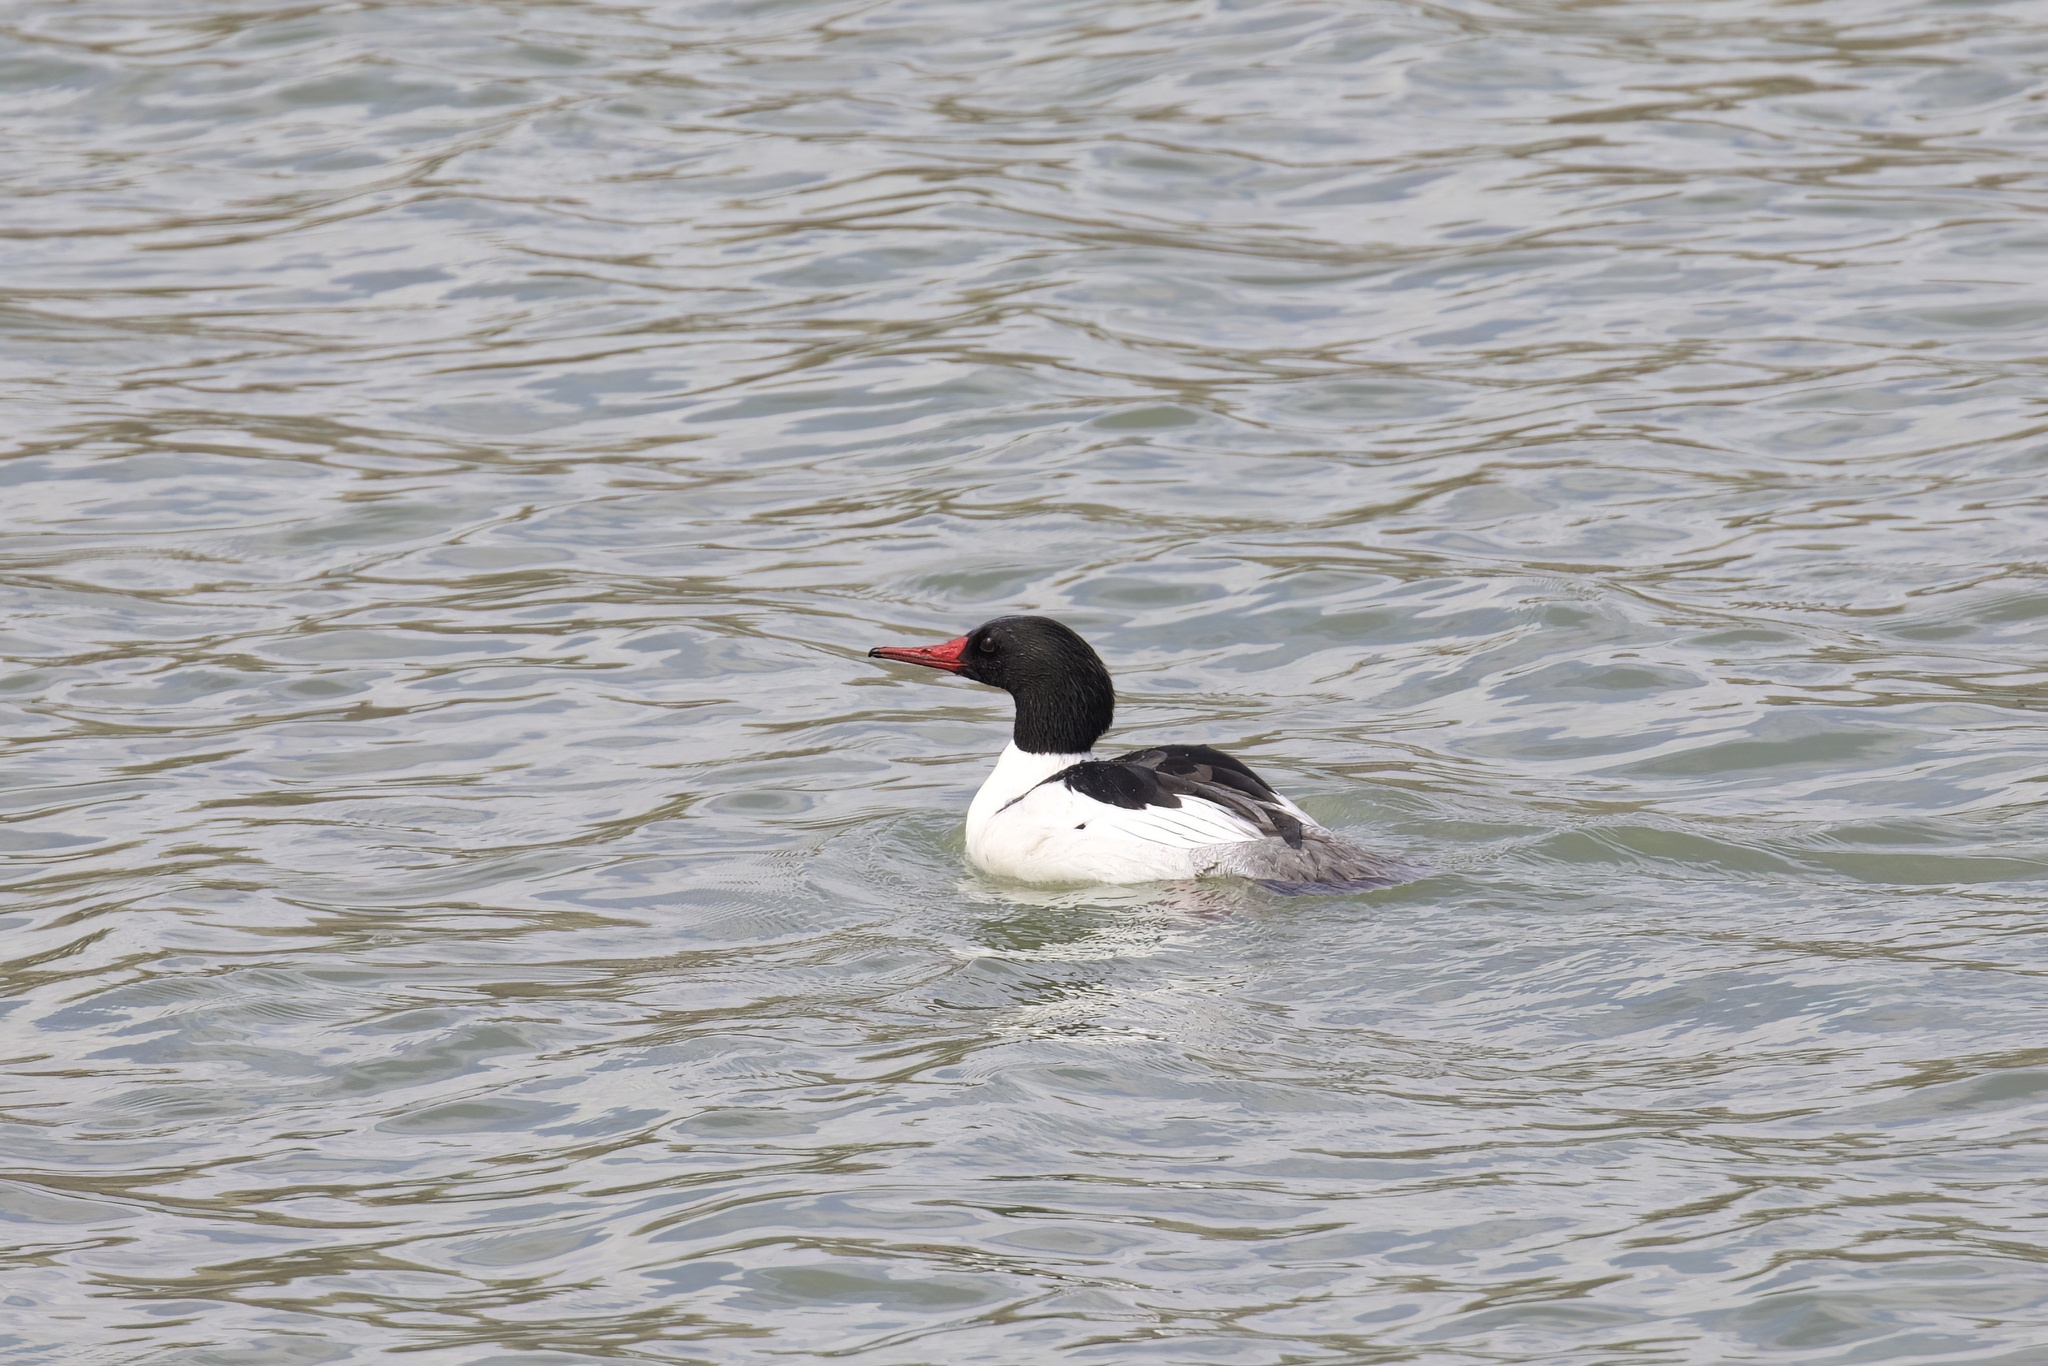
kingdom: Animalia
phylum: Chordata
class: Aves
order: Anseriformes
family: Anatidae
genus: Mergus
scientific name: Mergus merganser
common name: Common merganser
